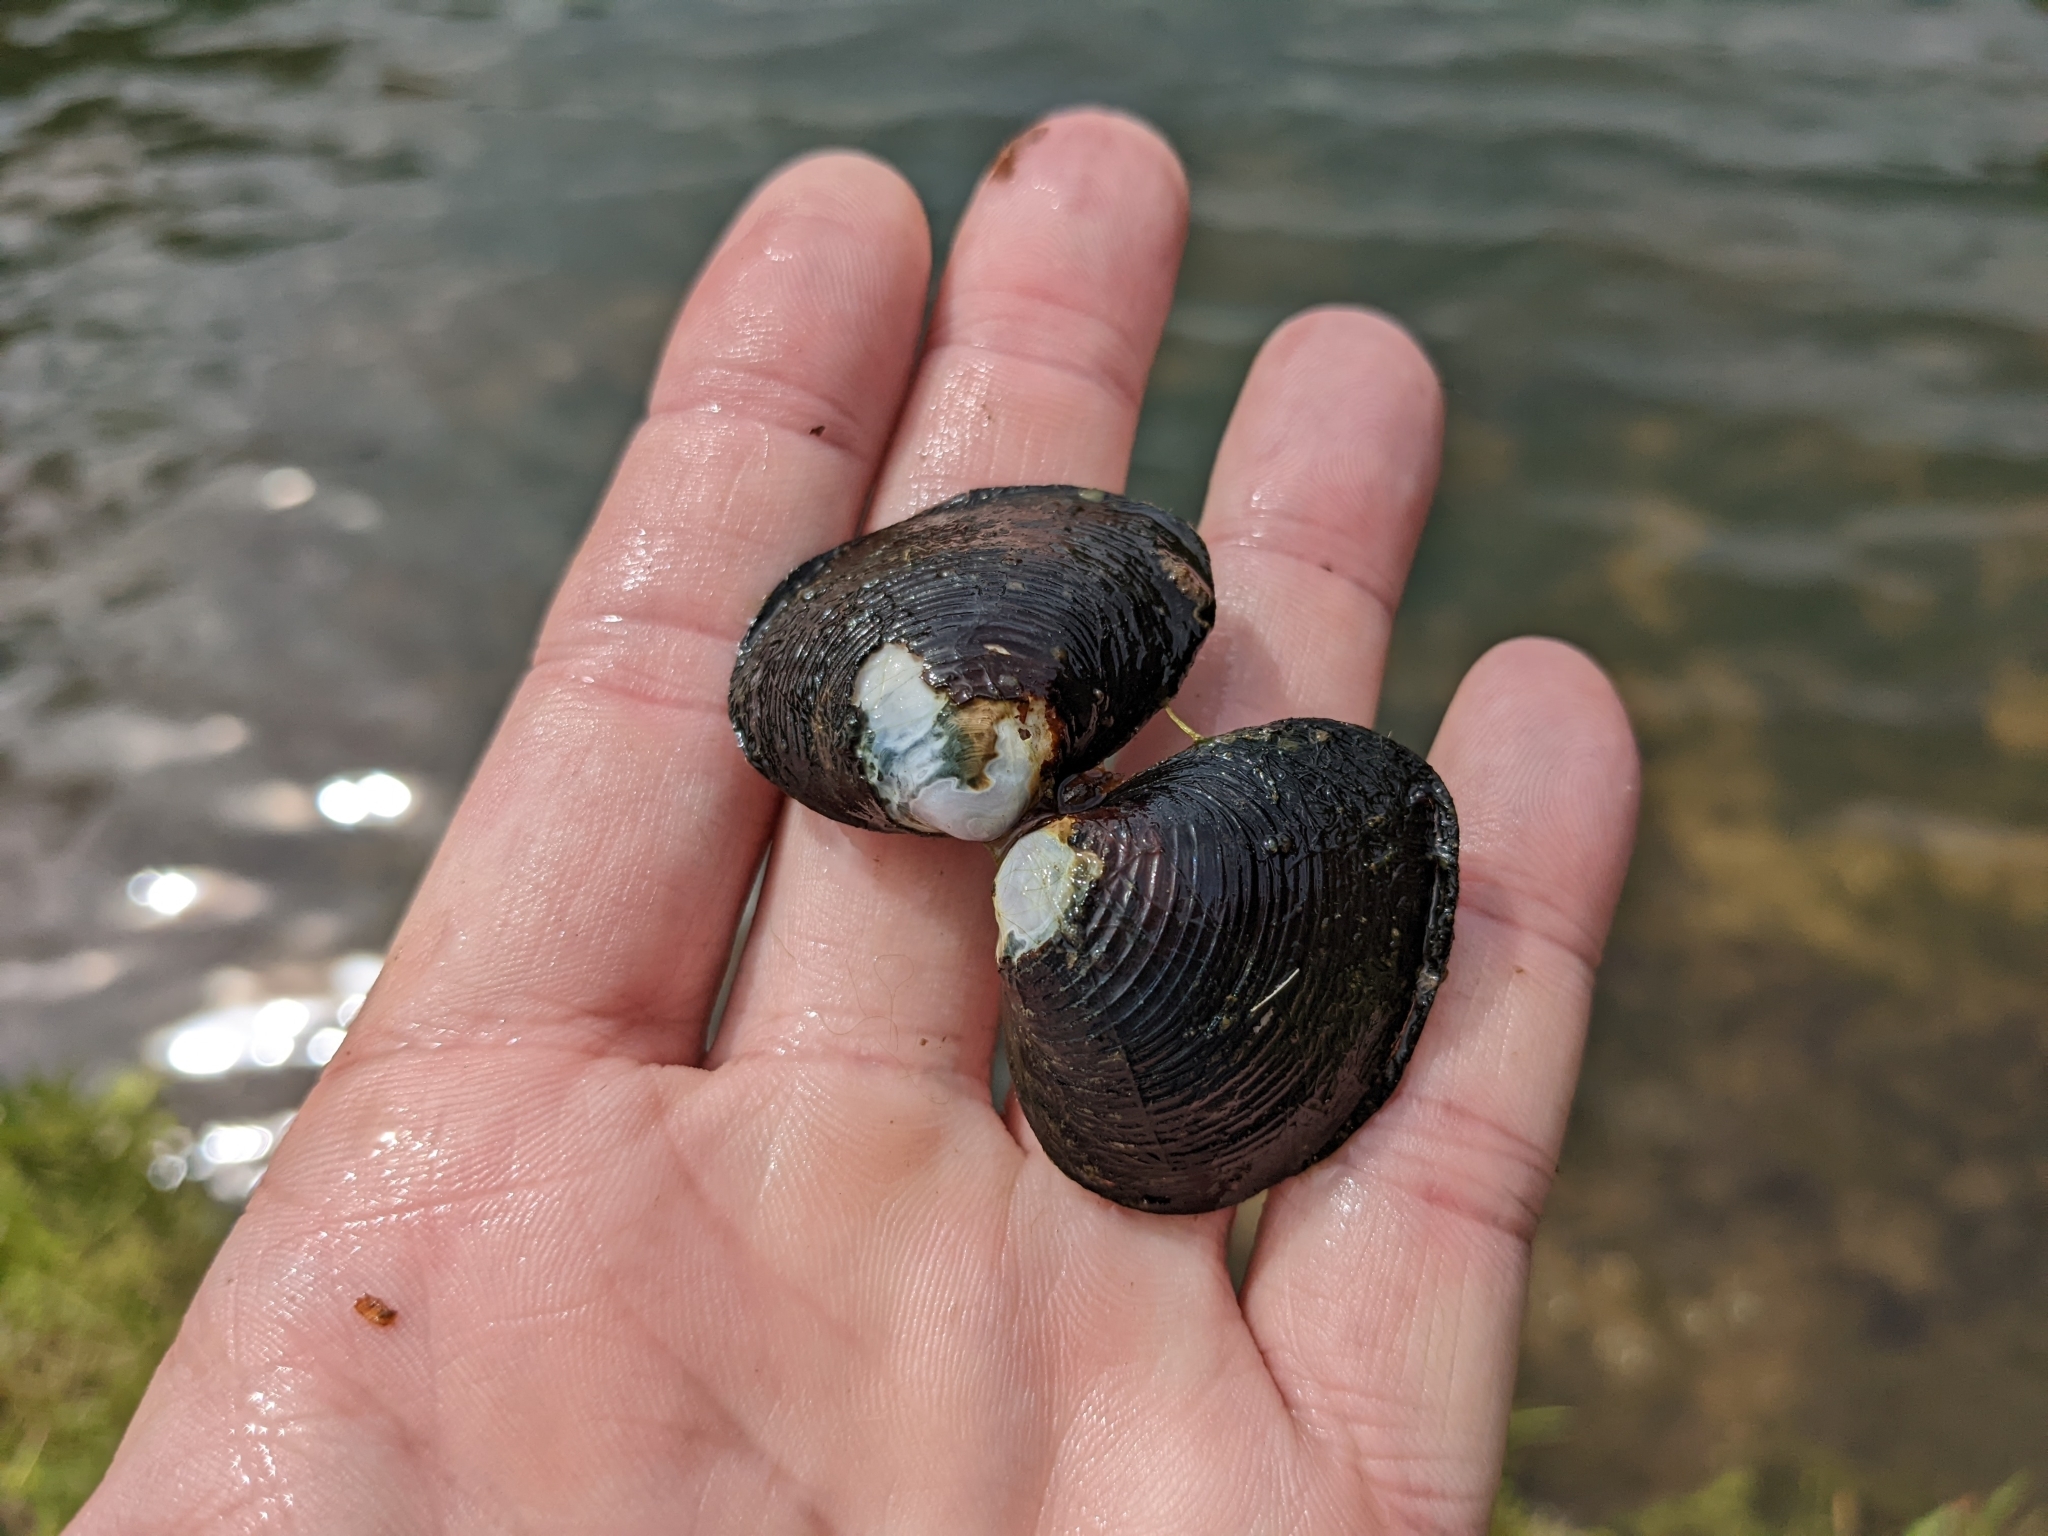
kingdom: Animalia
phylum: Mollusca
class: Bivalvia
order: Venerida
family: Cyrenidae
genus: Corbicula
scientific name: Corbicula fluminea
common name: Asian clam
